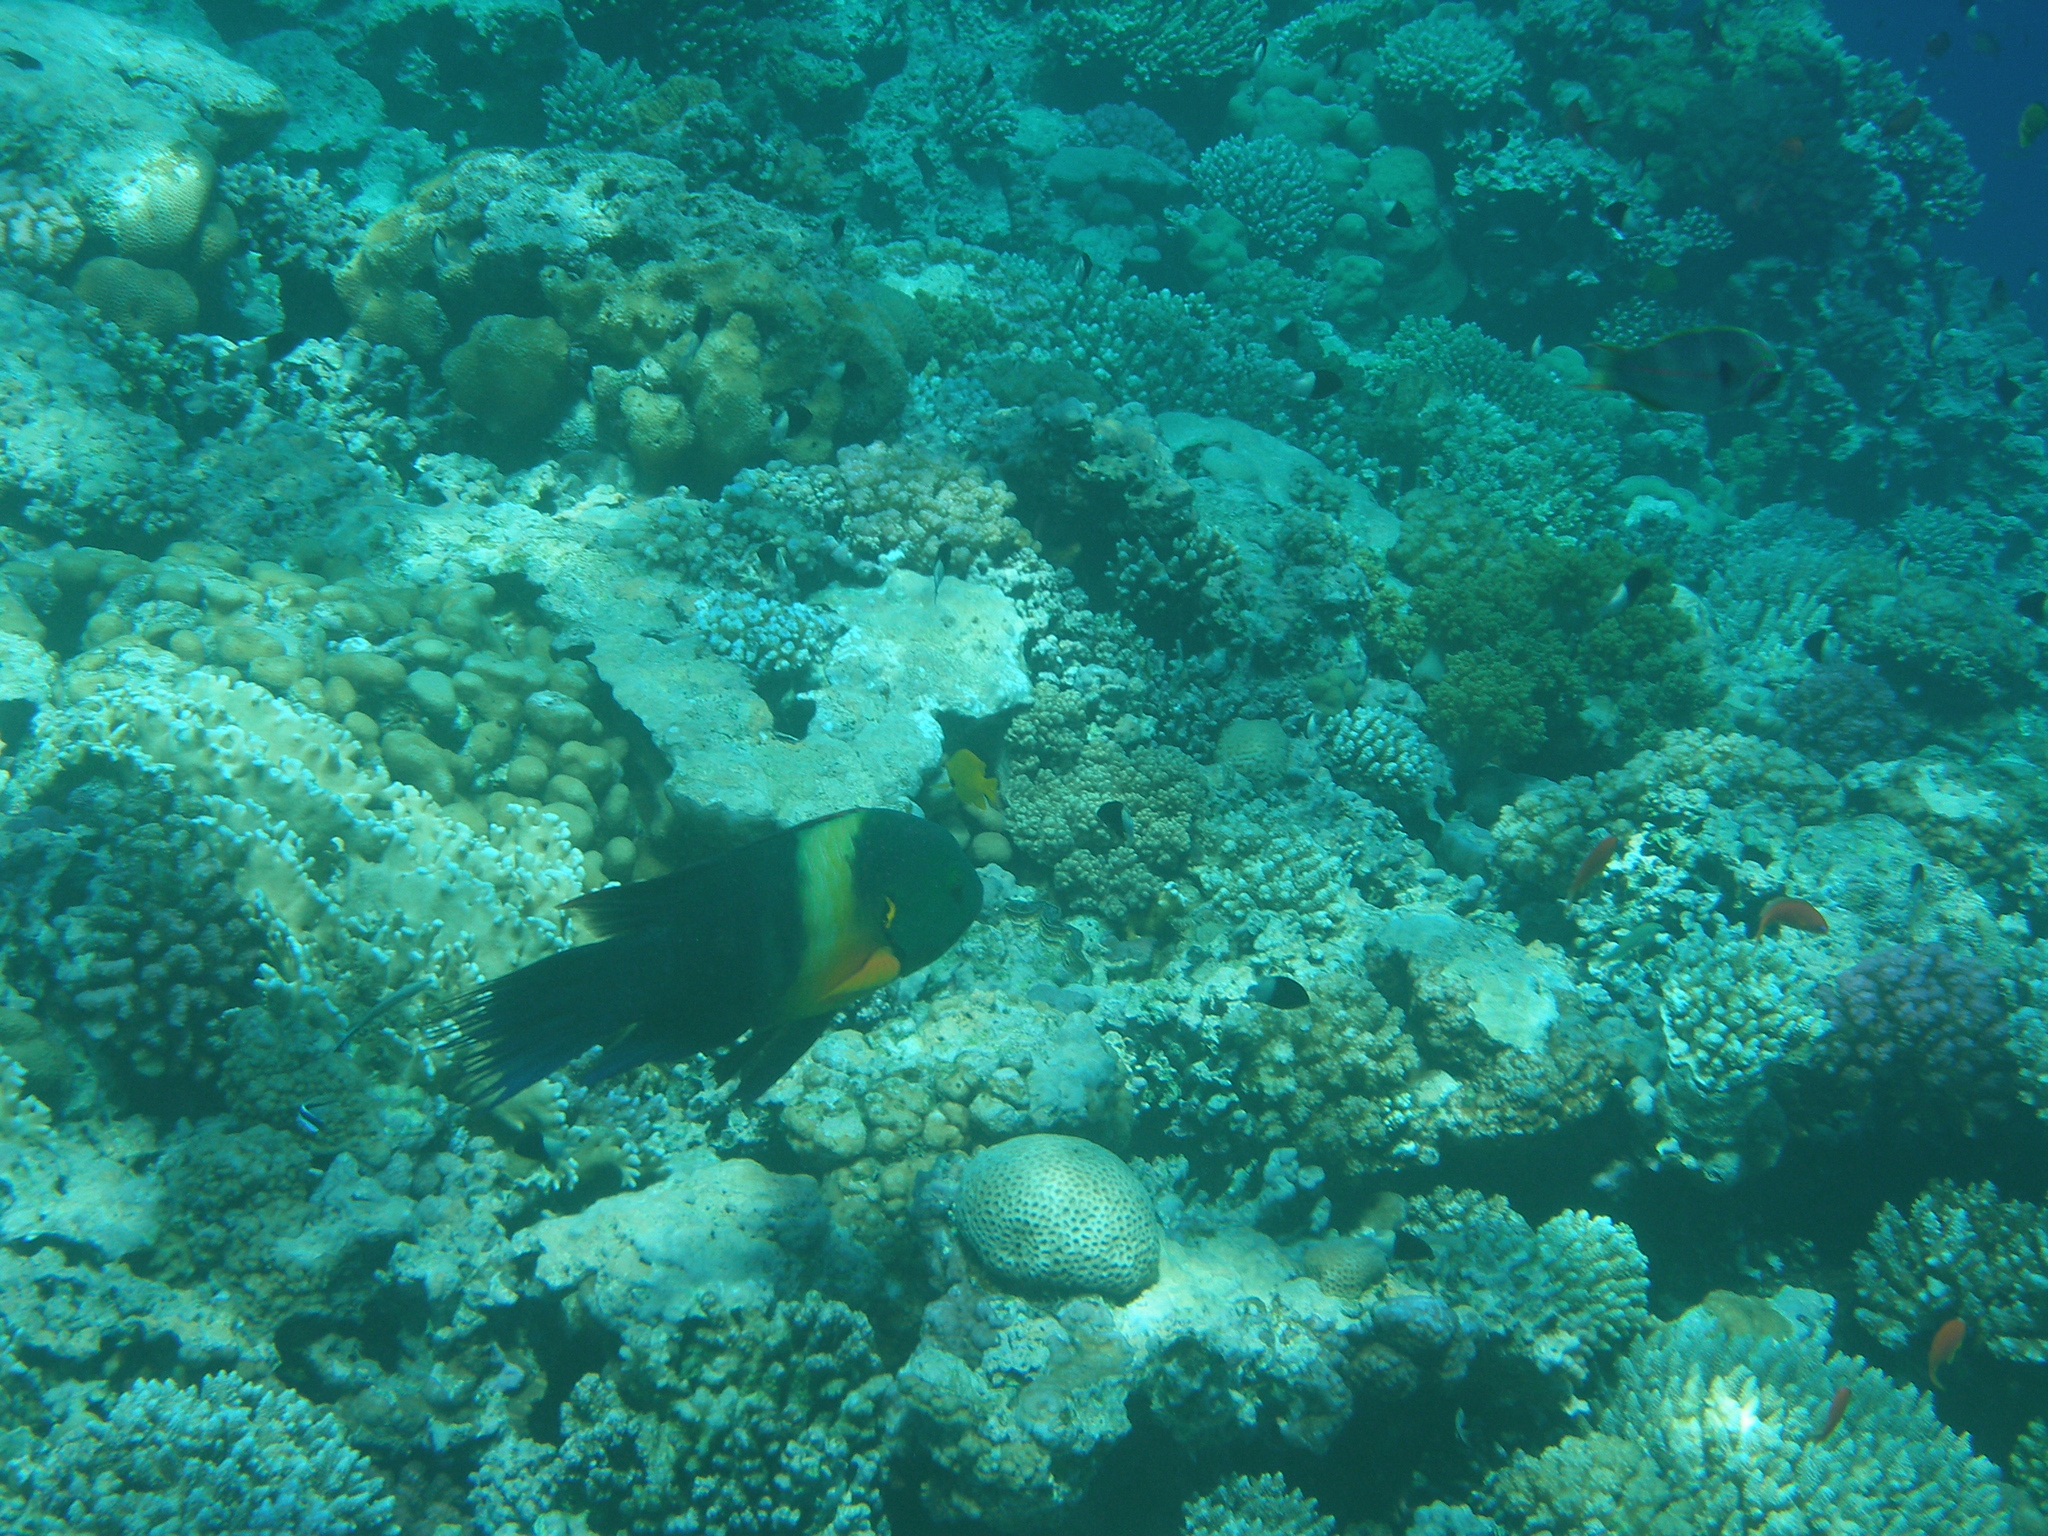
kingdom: Animalia
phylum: Chordata
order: Perciformes
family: Labridae
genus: Cheilinus
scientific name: Cheilinus lunulatus
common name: Broomtail wrasse
